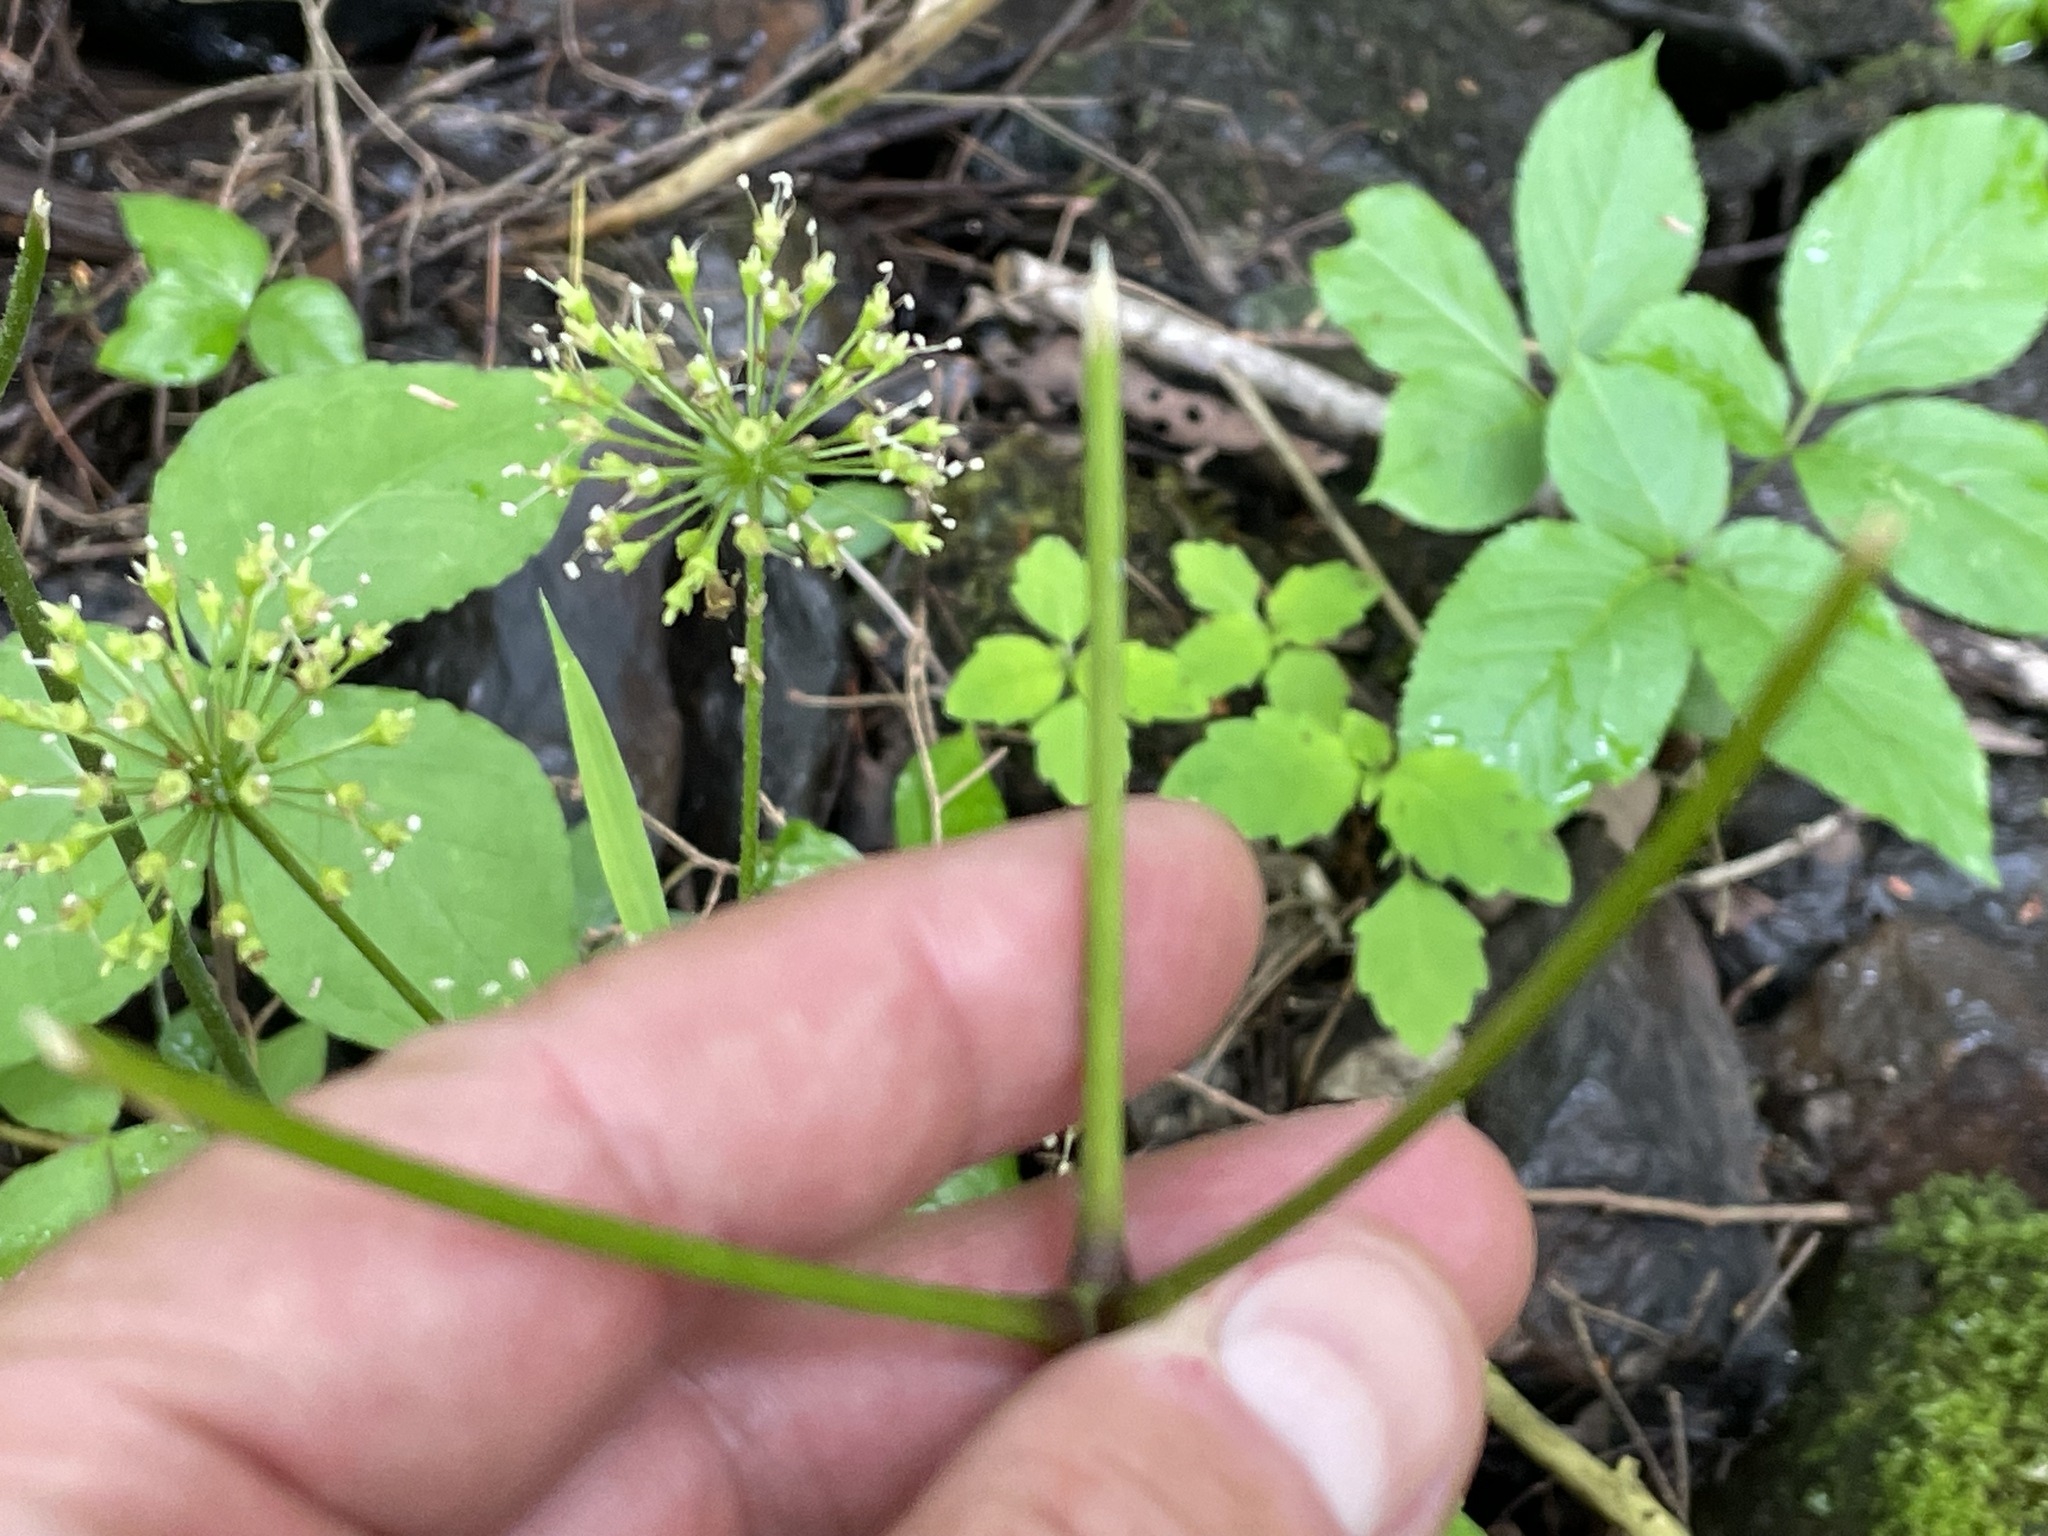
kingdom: Plantae
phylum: Tracheophyta
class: Magnoliopsida
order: Apiales
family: Araliaceae
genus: Aralia
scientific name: Aralia nudicaulis
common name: Wild sarsaparilla
